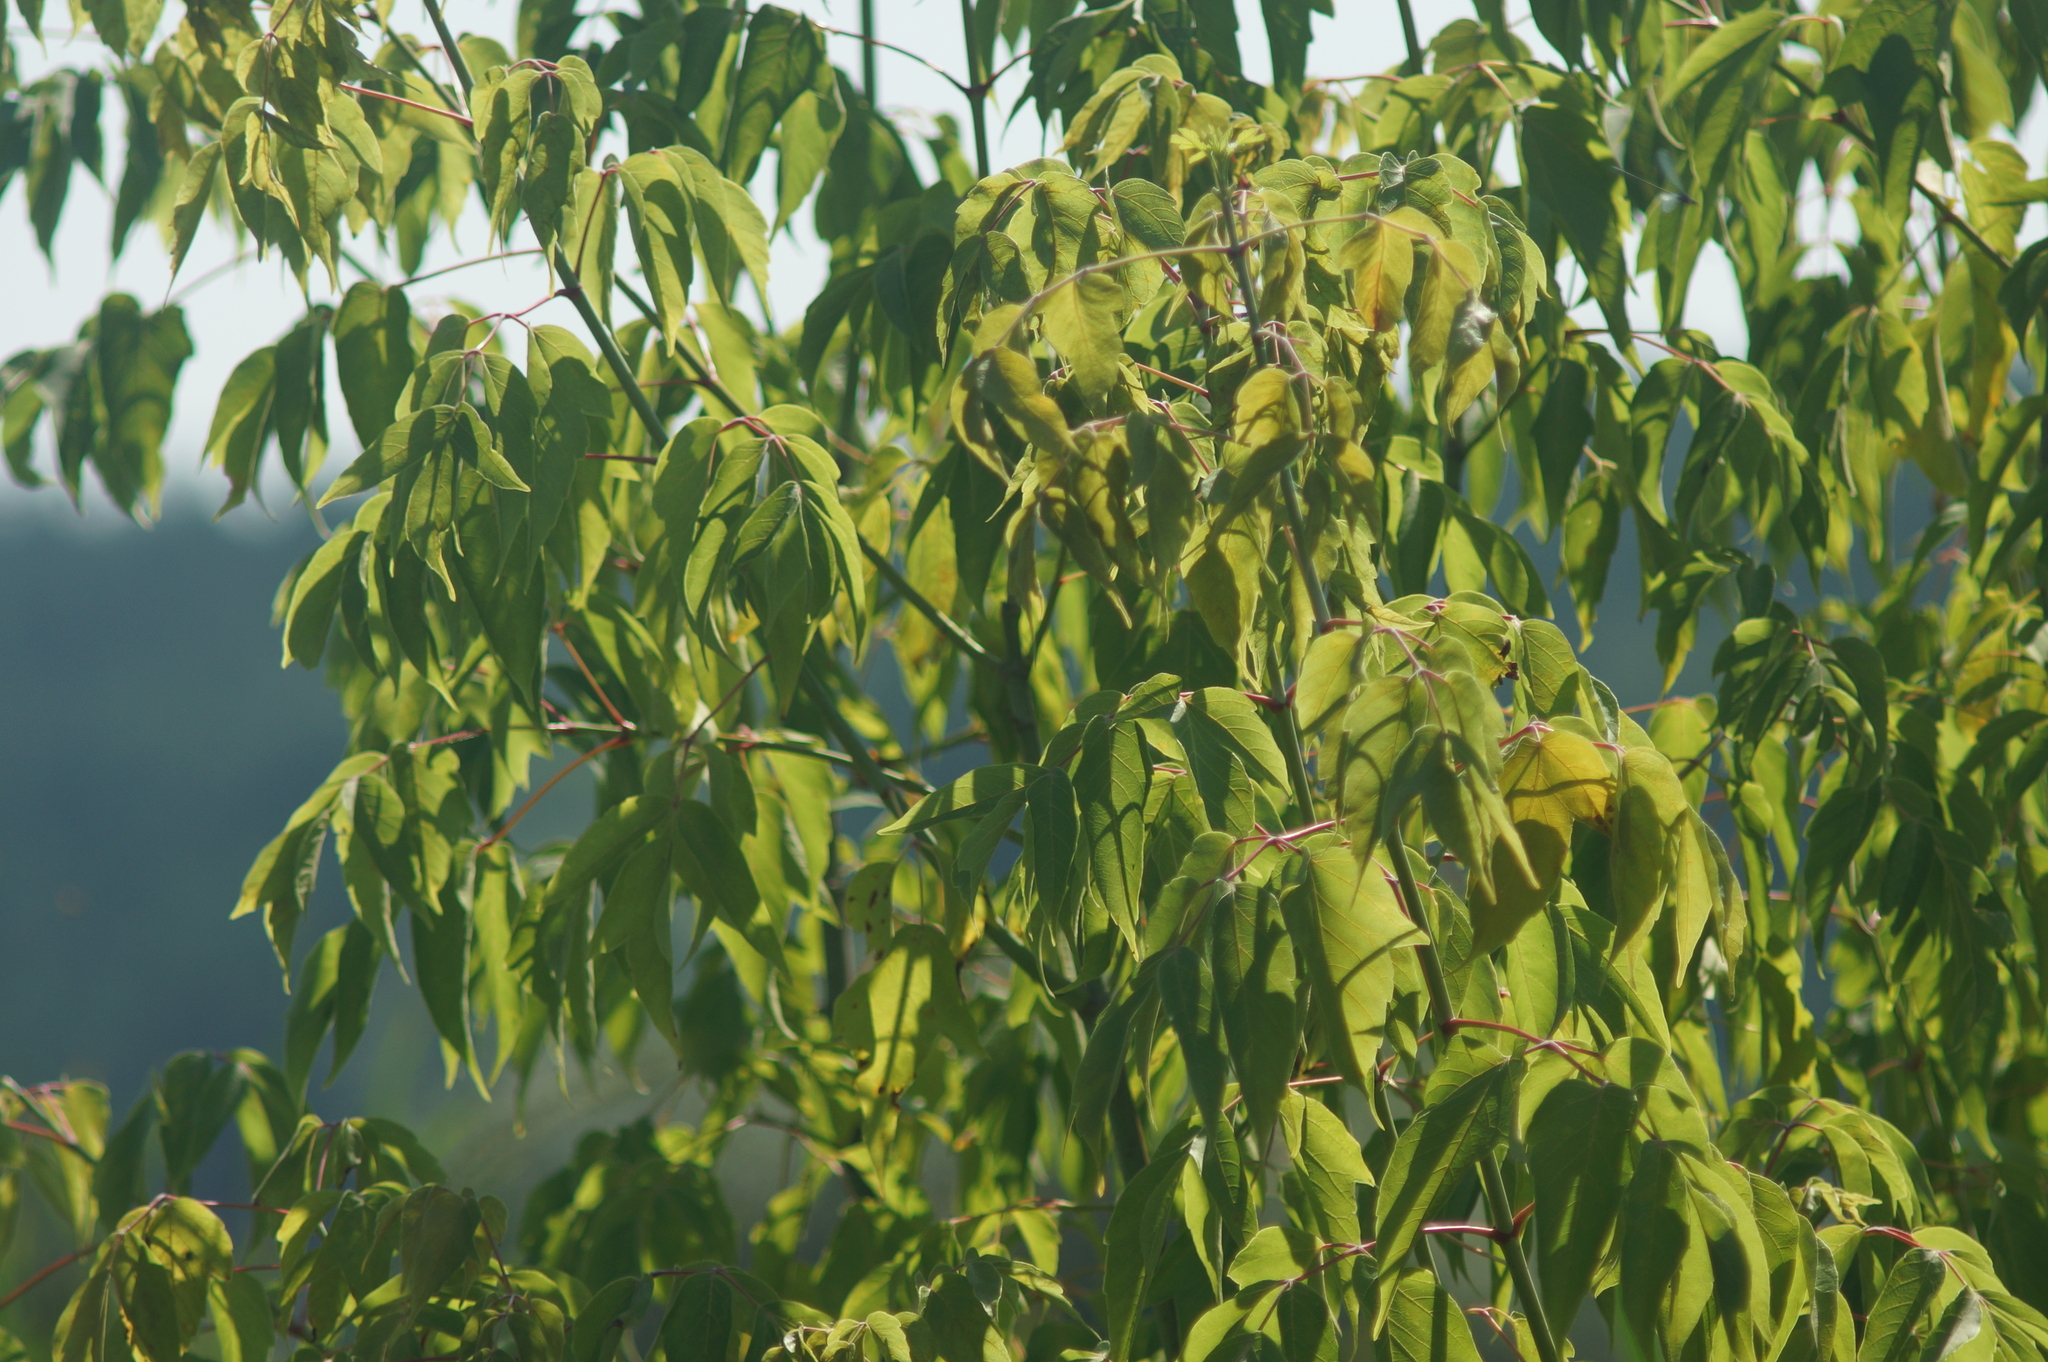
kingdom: Plantae
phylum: Tracheophyta
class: Magnoliopsida
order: Sapindales
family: Sapindaceae
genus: Acer
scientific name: Acer negundo
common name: Ashleaf maple
